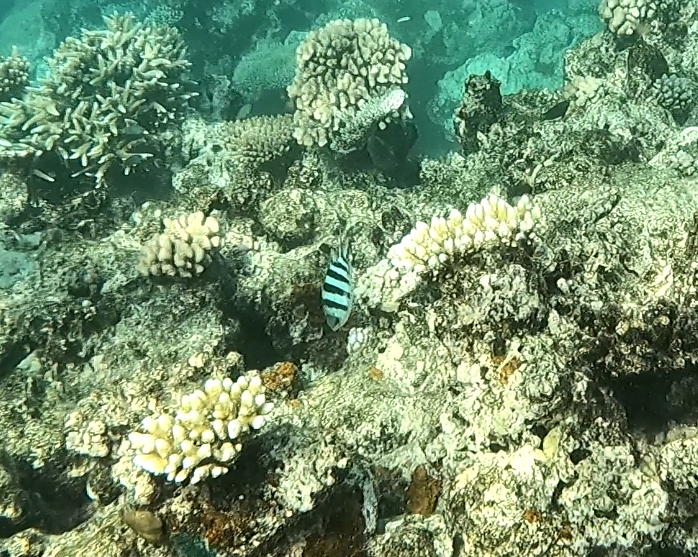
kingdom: Animalia
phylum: Chordata
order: Perciformes
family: Pomacentridae
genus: Abudefduf
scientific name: Abudefduf sexfasciatus
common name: Scissortail sergeant
